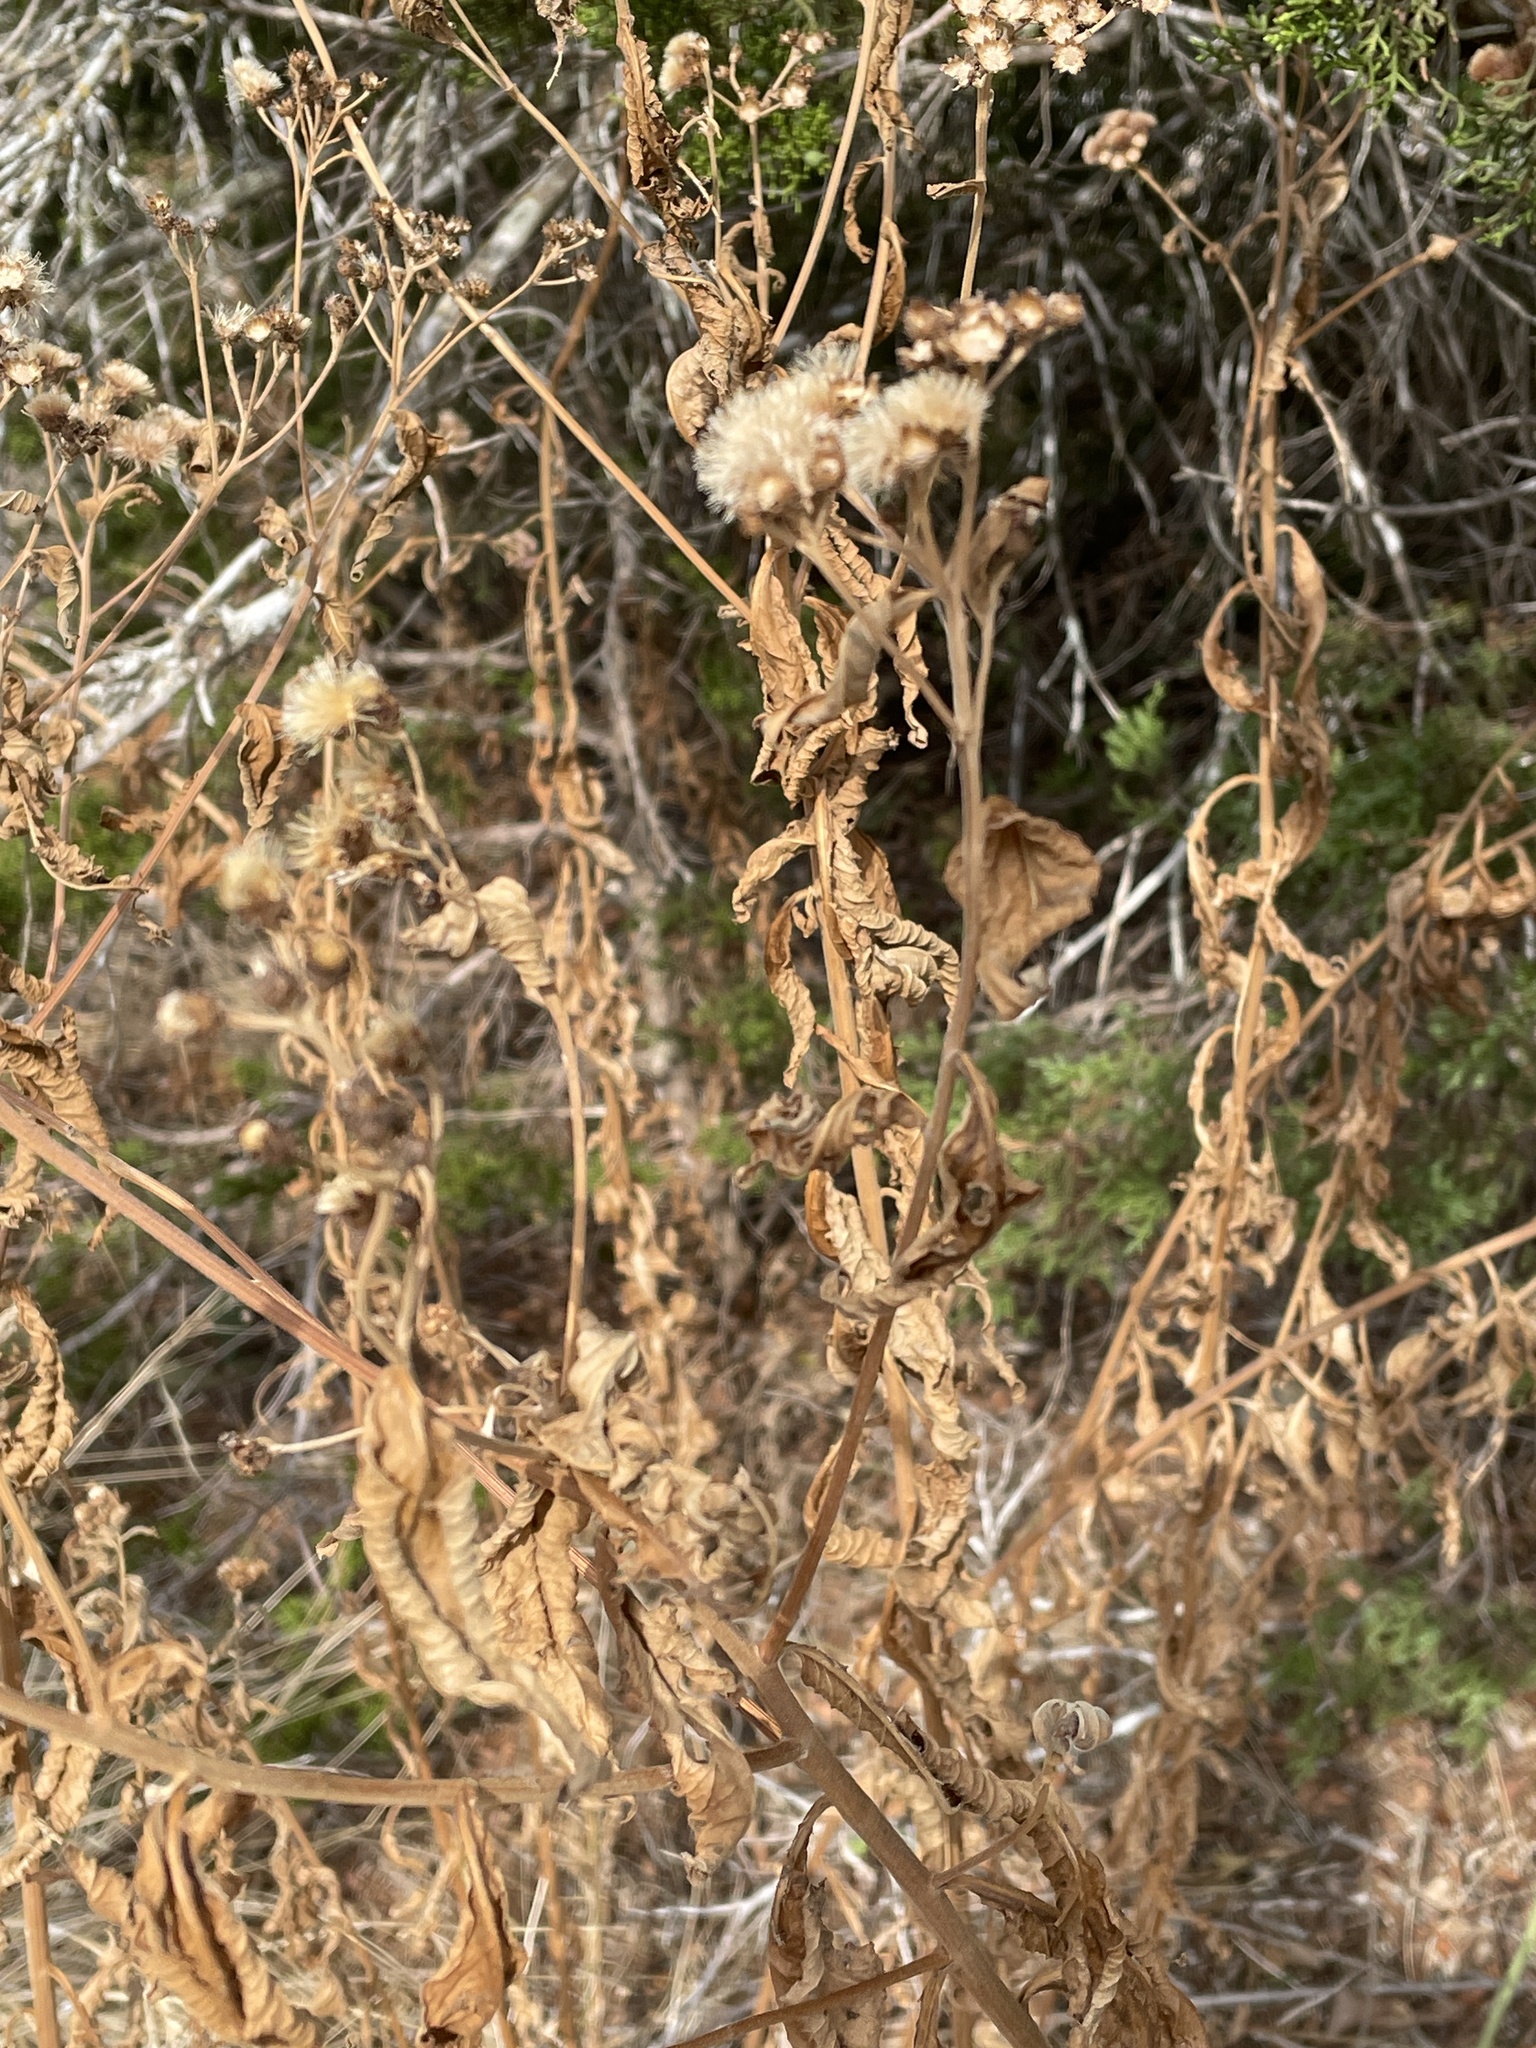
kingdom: Plantae
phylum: Tracheophyta
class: Magnoliopsida
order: Asterales
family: Asteraceae
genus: Vernonia
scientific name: Vernonia baldwinii
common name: Western ironweed
